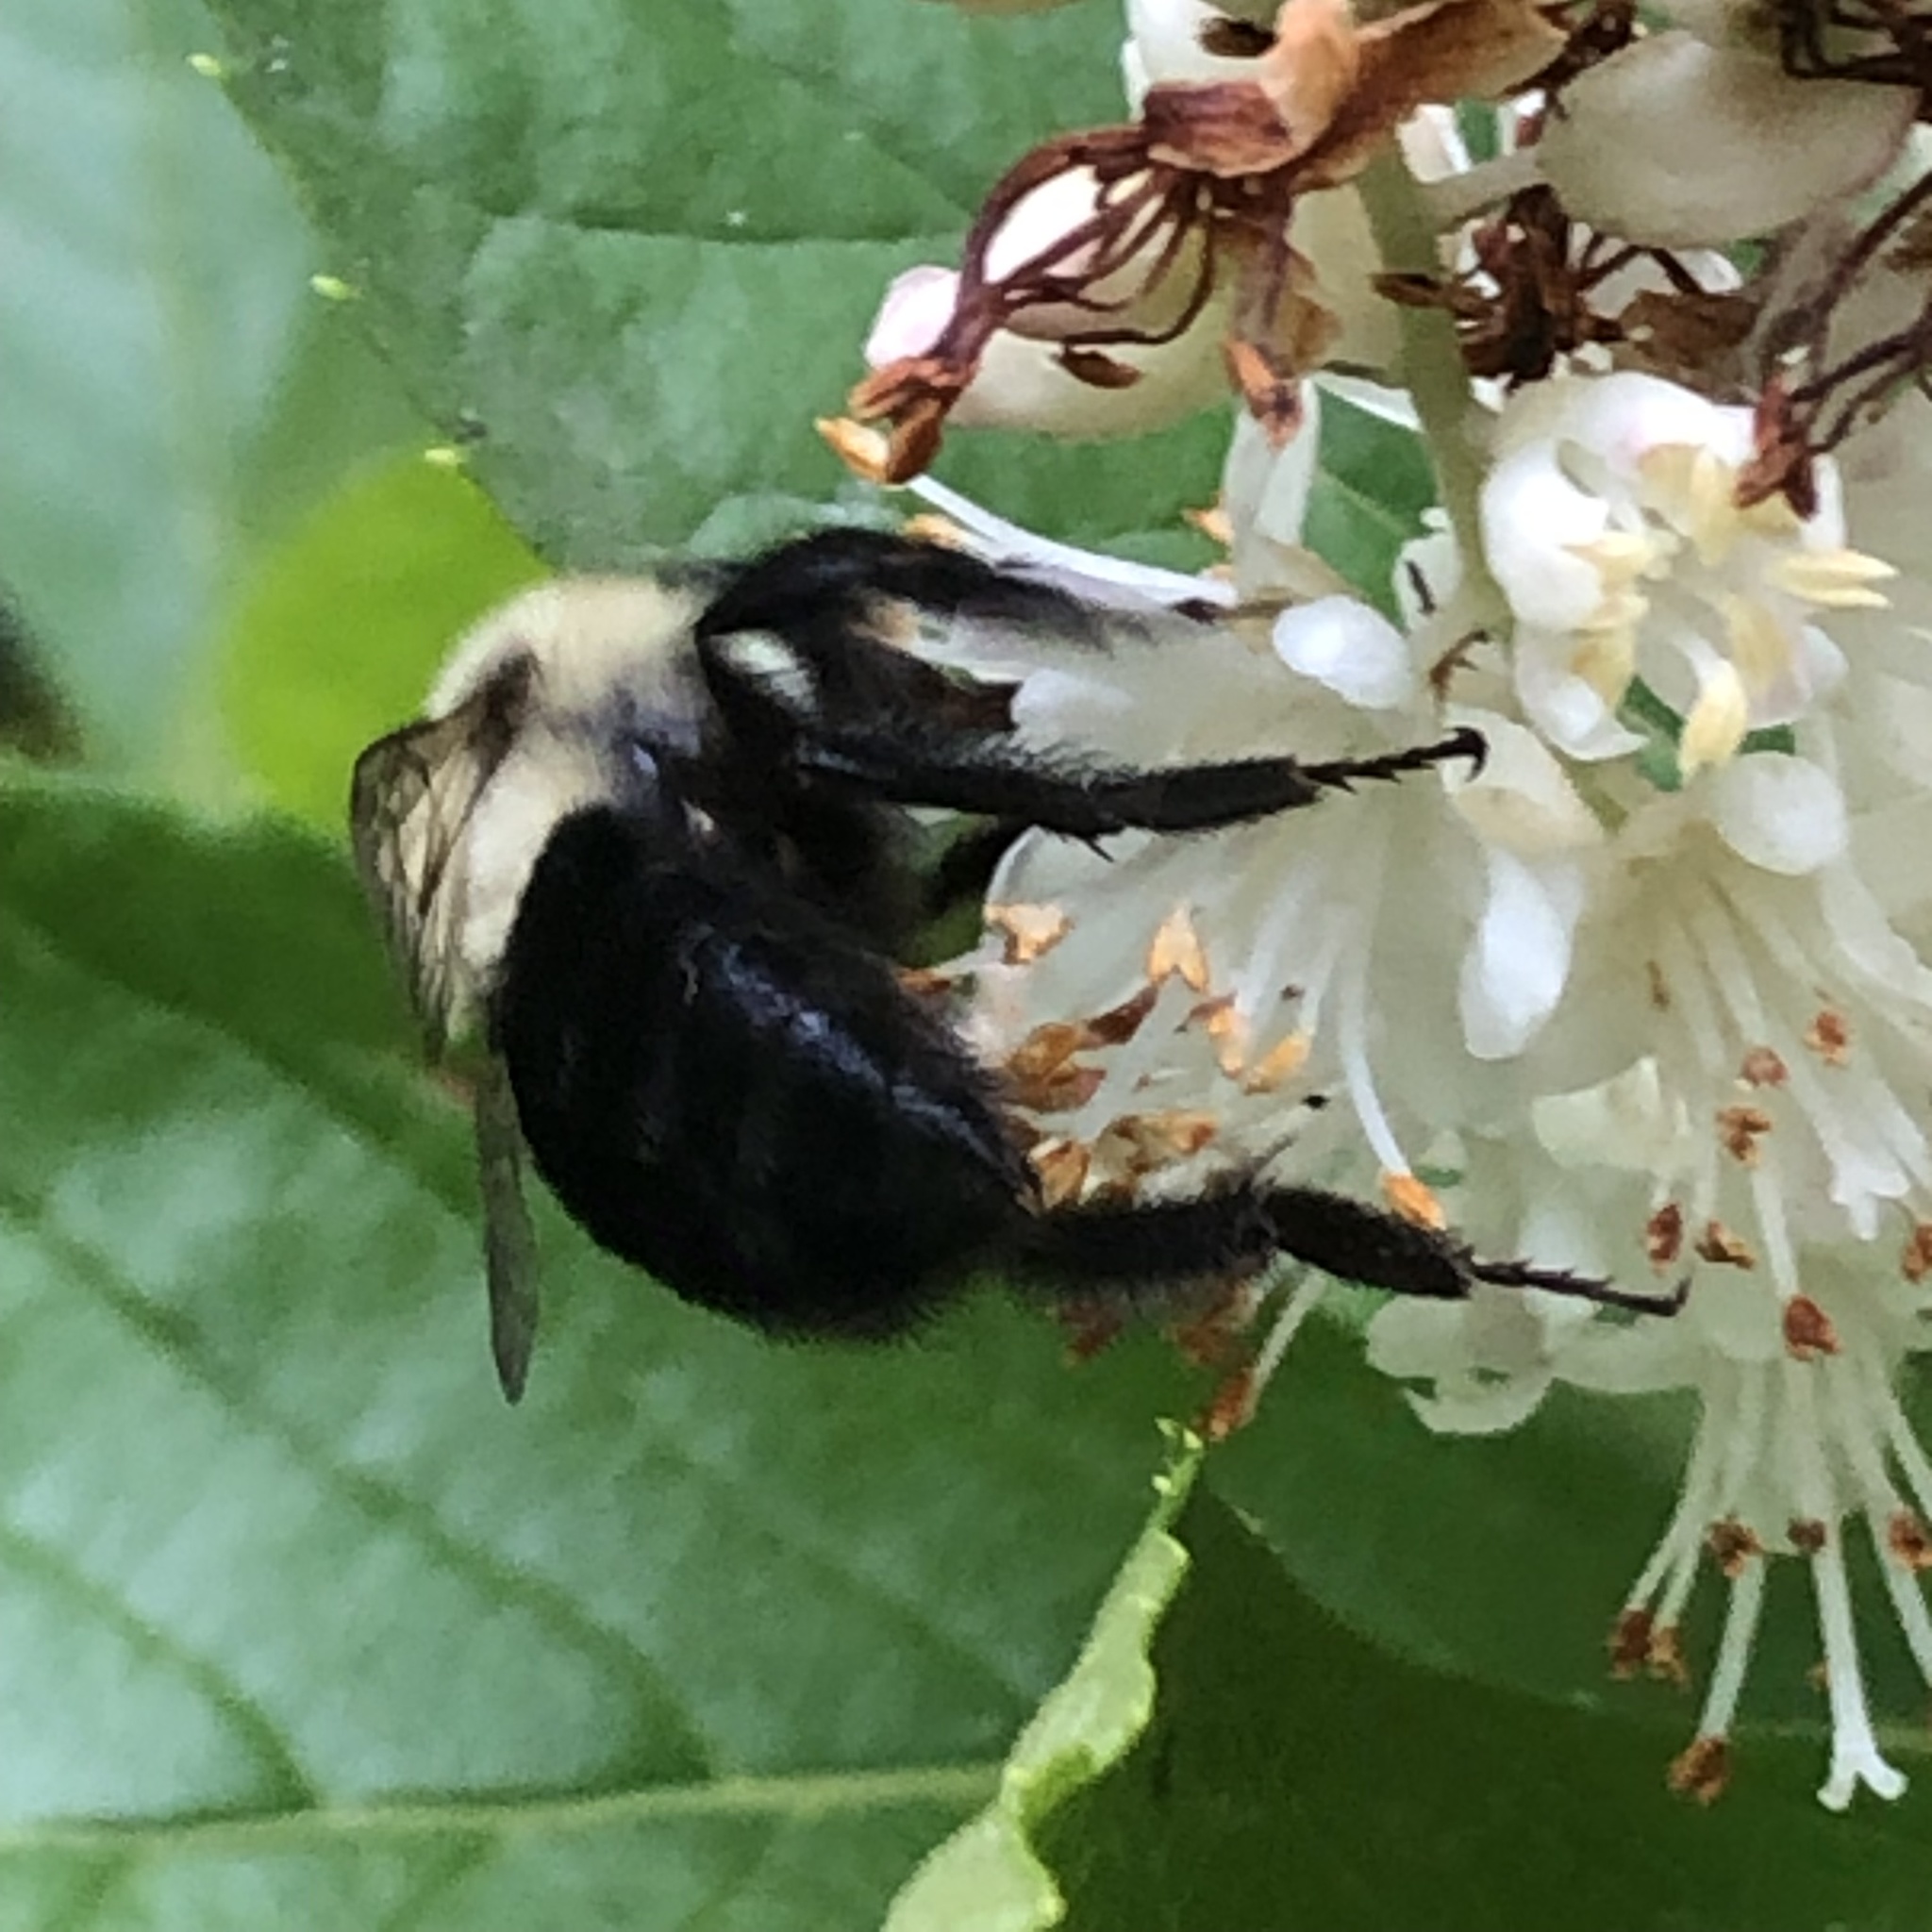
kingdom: Animalia
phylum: Arthropoda
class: Insecta
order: Hymenoptera
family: Apidae
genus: Bombus
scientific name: Bombus impatiens
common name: Common eastern bumble bee
